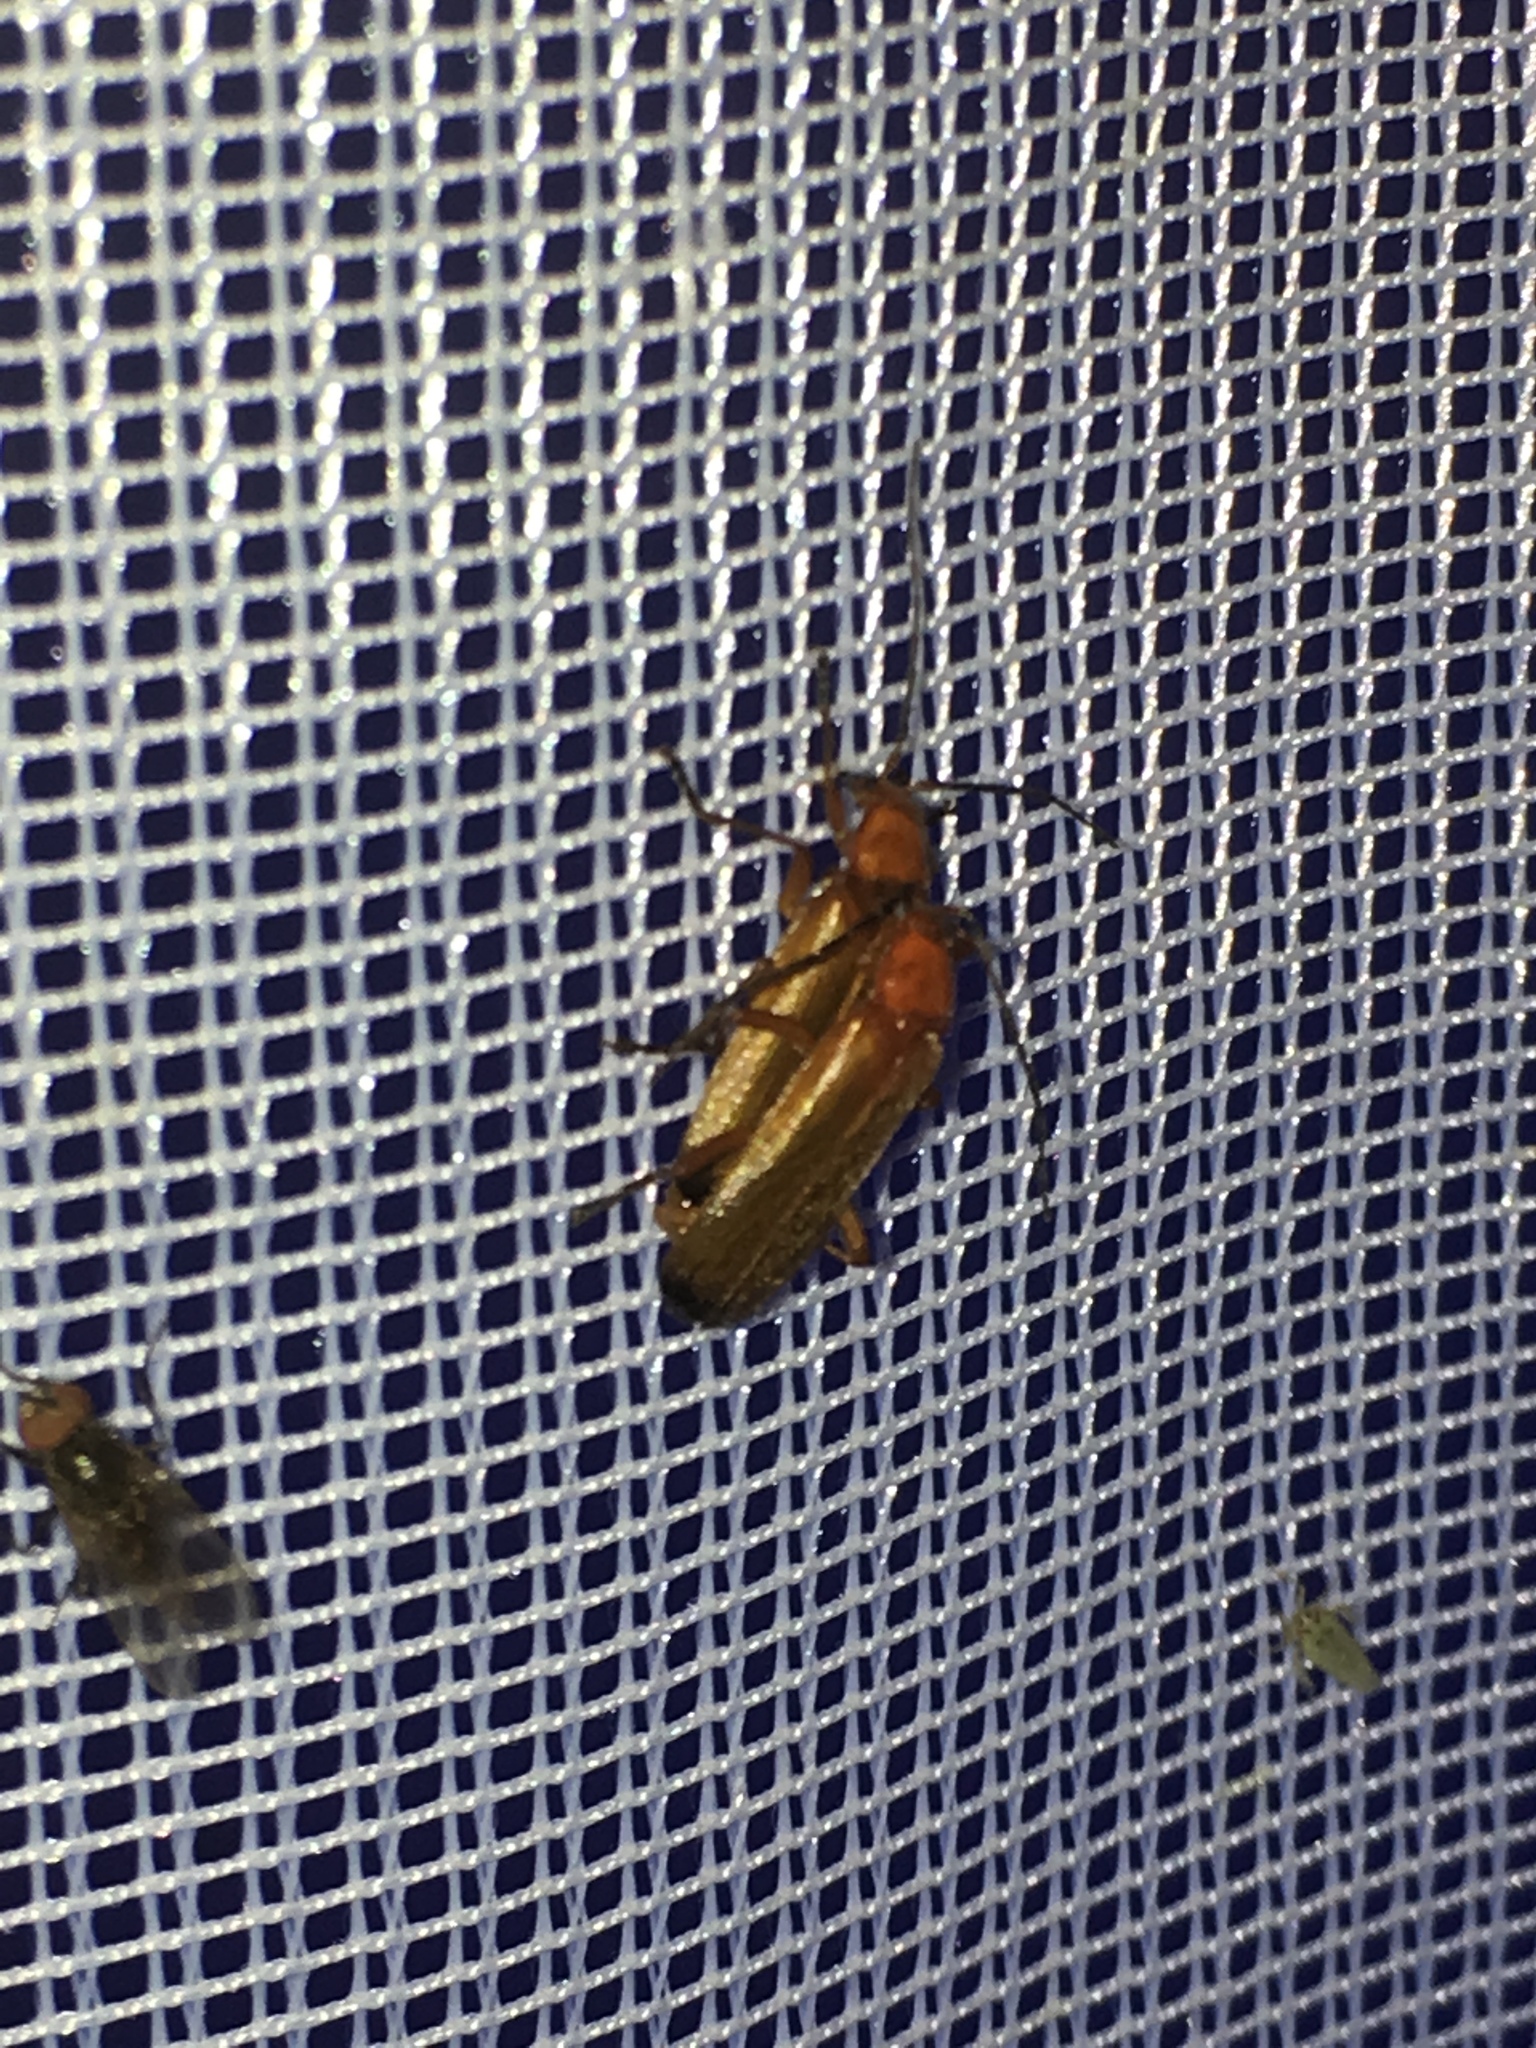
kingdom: Animalia
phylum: Arthropoda
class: Insecta
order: Coleoptera
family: Cantharidae
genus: Rhagonycha
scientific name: Rhagonycha fulva
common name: Common red soldier beetle
